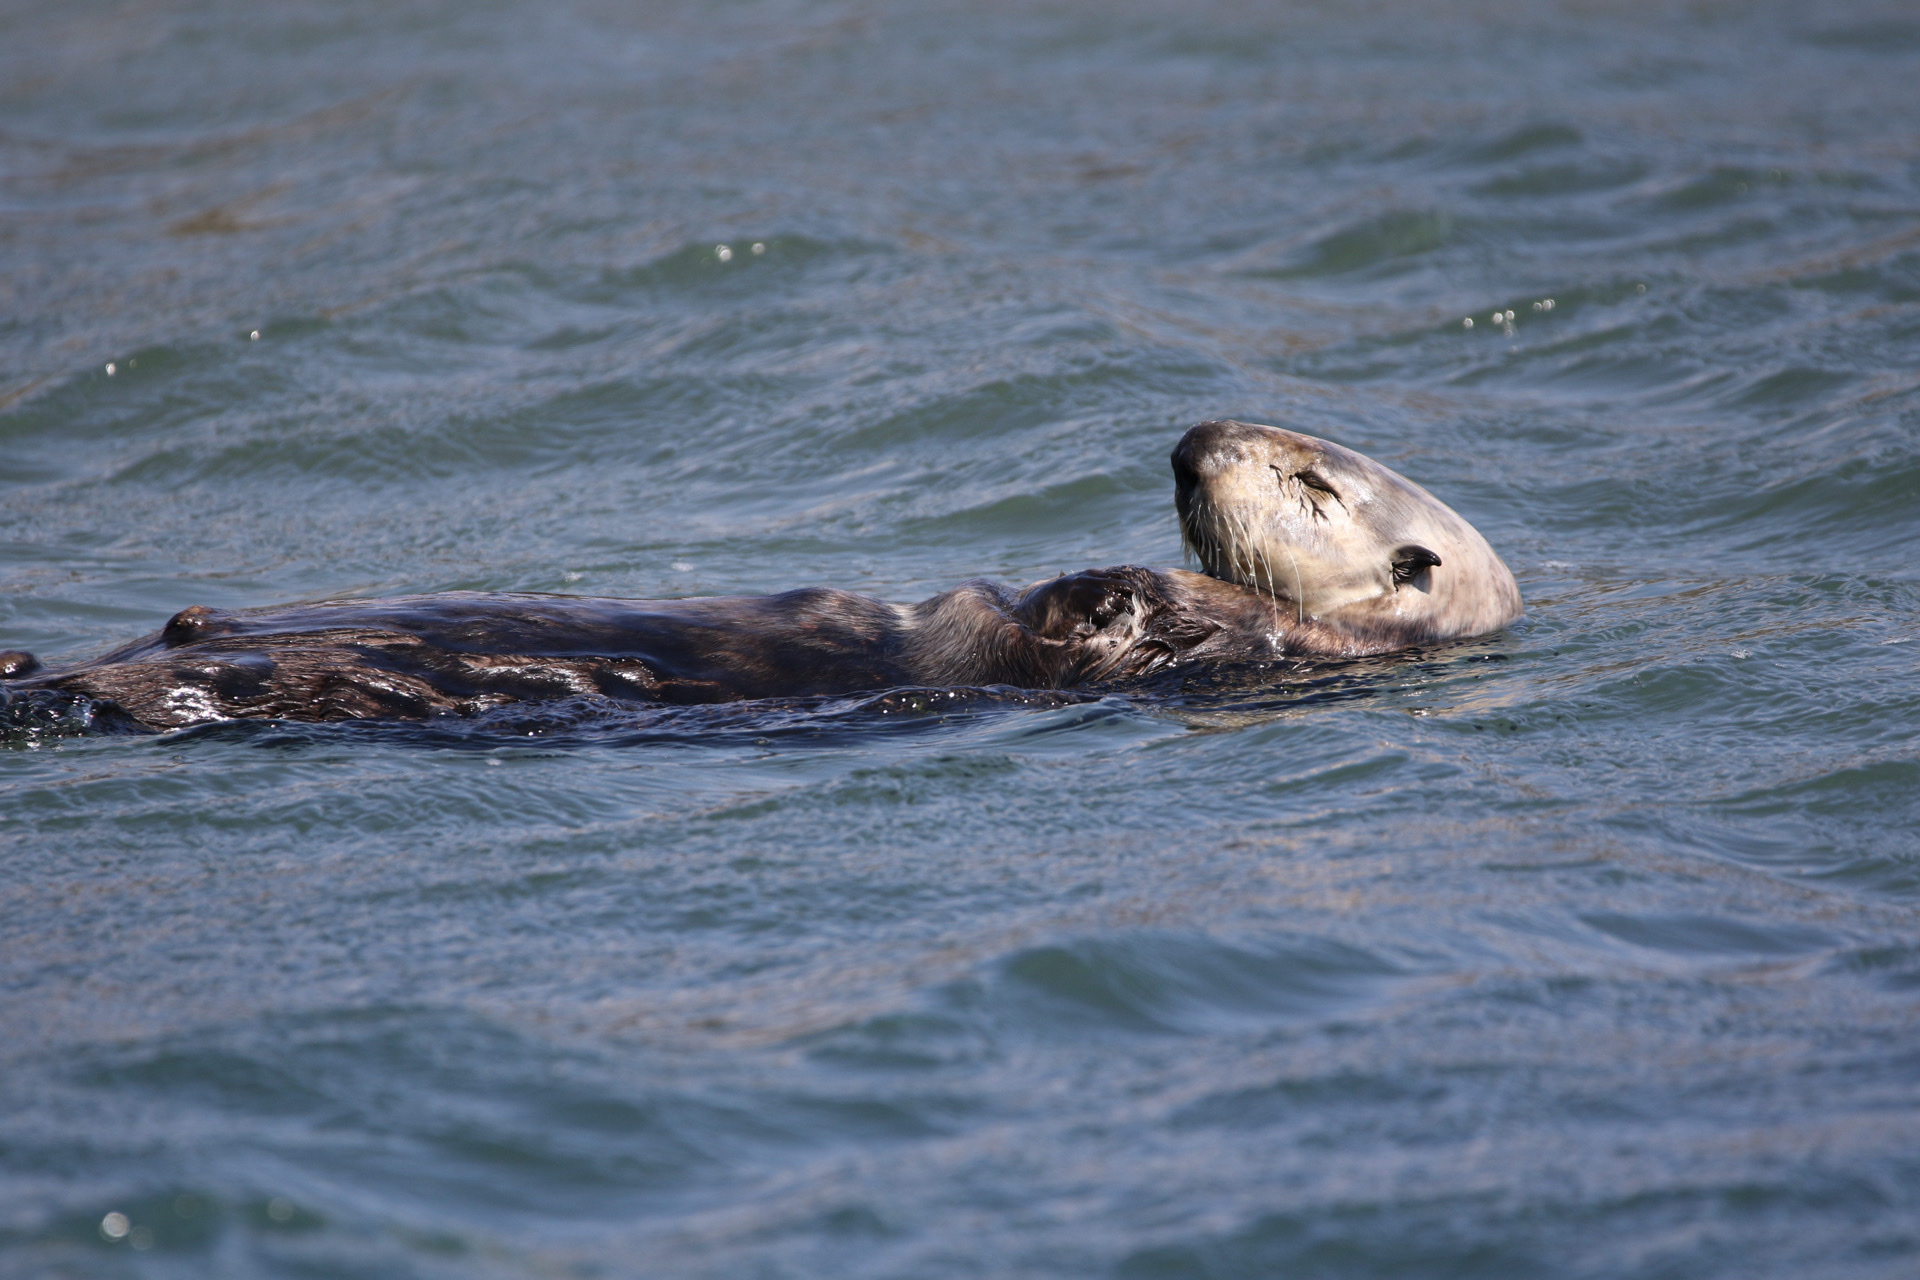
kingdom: Animalia
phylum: Chordata
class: Mammalia
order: Carnivora
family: Mustelidae
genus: Enhydra
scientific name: Enhydra lutris
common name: Sea otter
